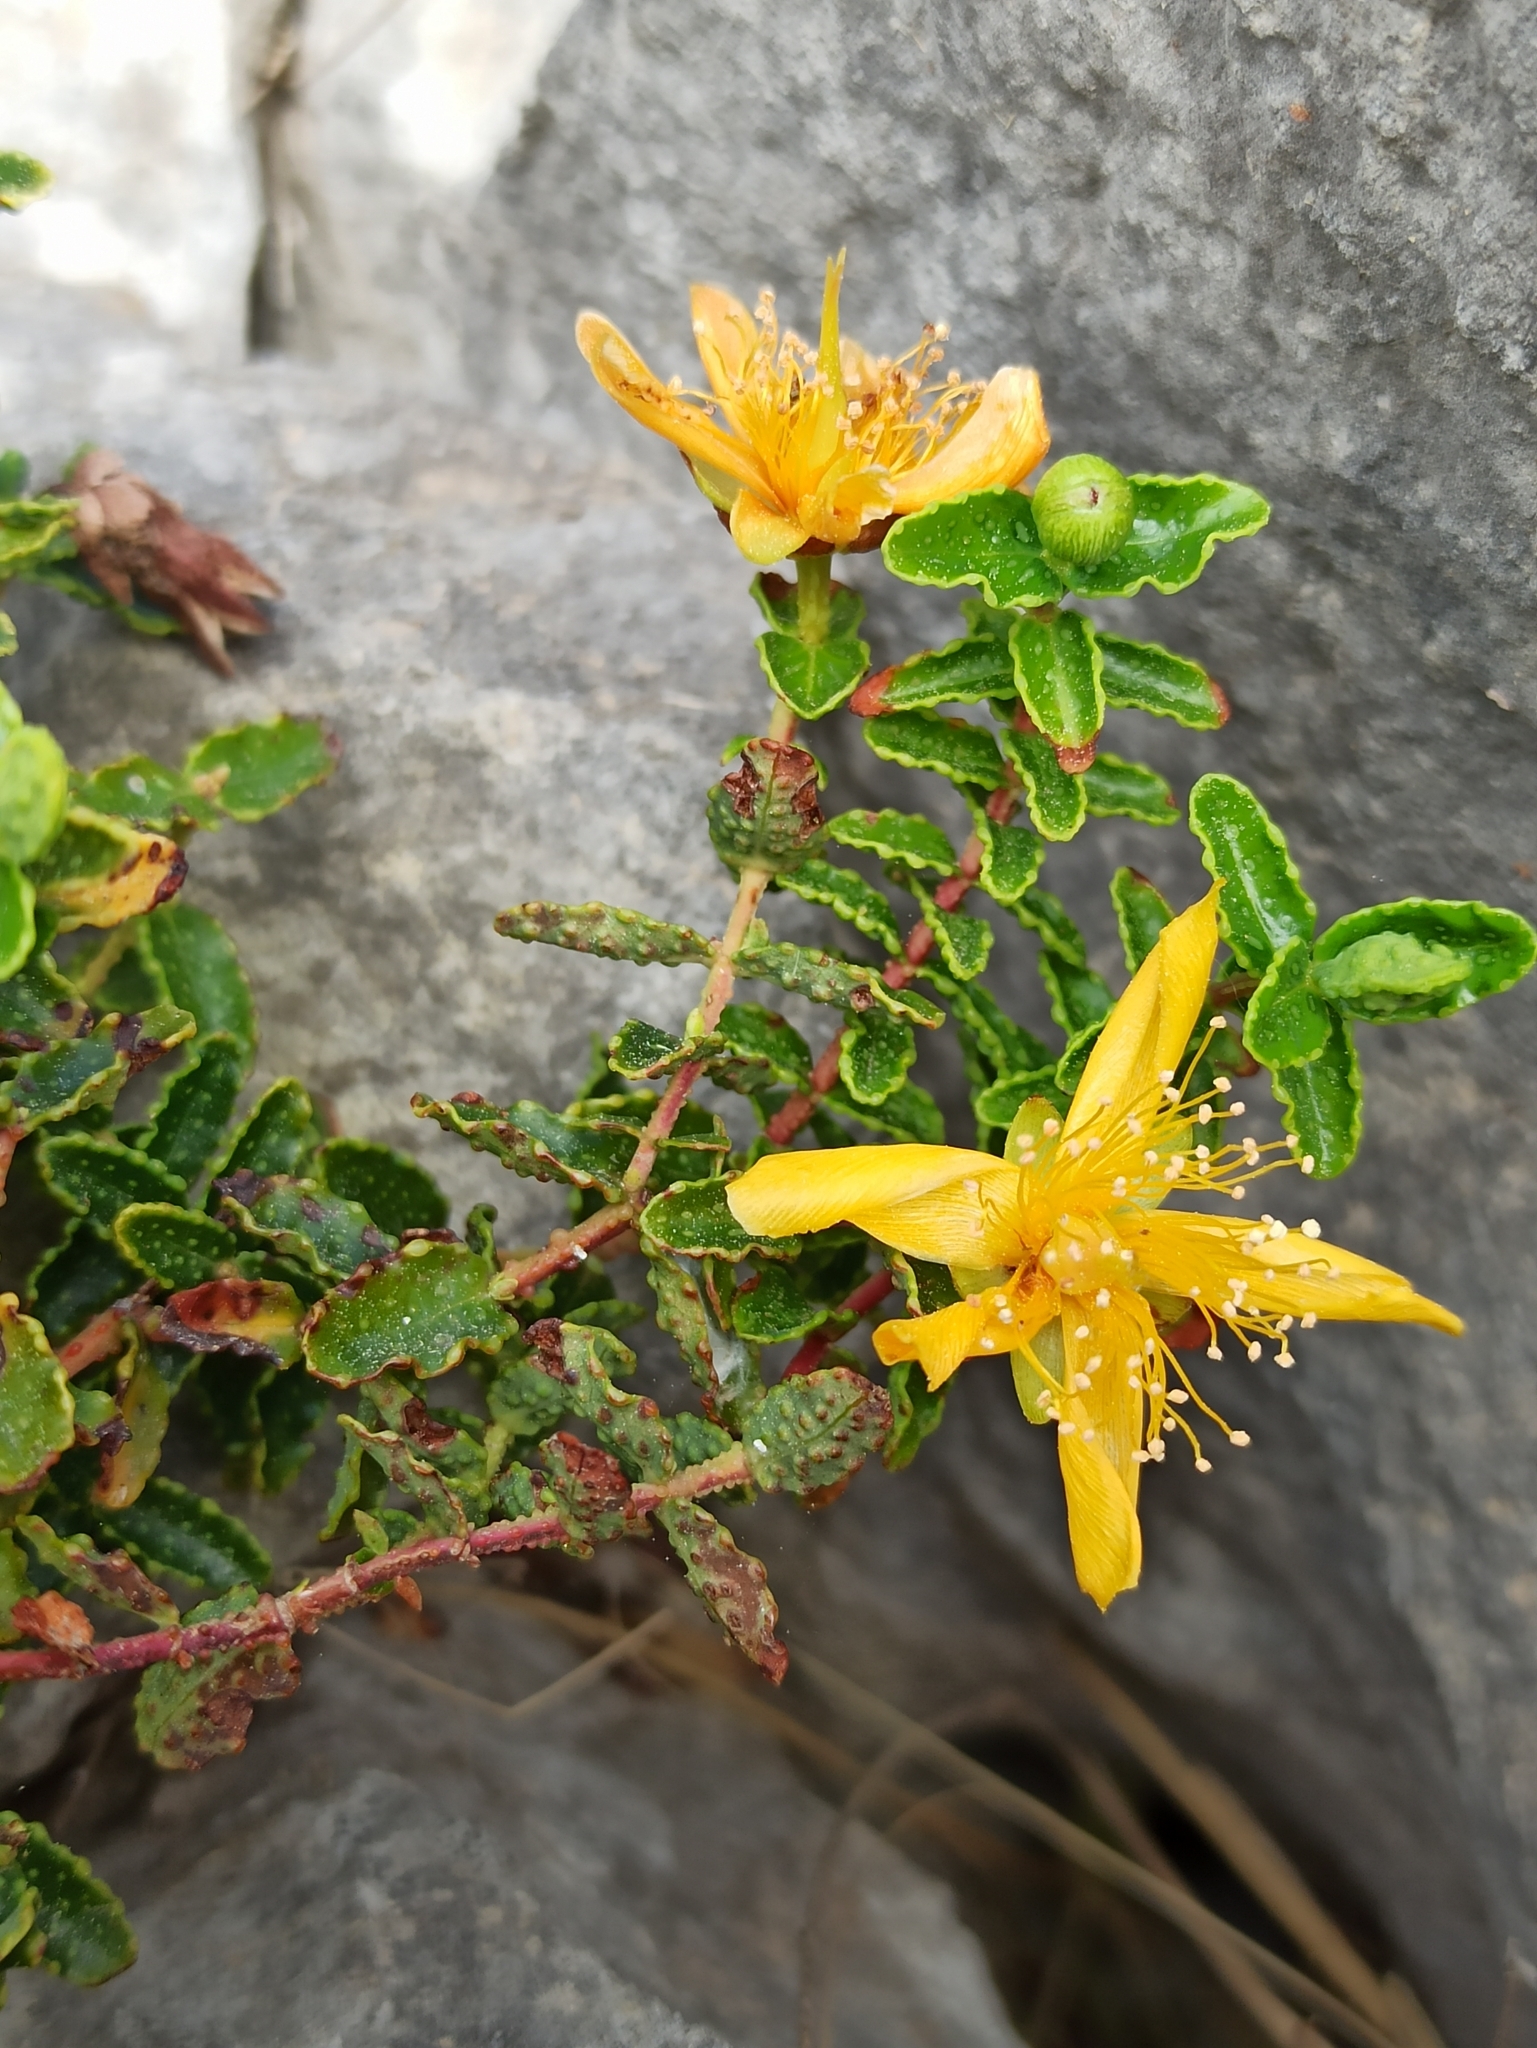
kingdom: Plantae
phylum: Tracheophyta
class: Magnoliopsida
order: Malpighiales
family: Hypericaceae
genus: Hypericum
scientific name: Hypericum balearicum
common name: Majorca st john's wort
